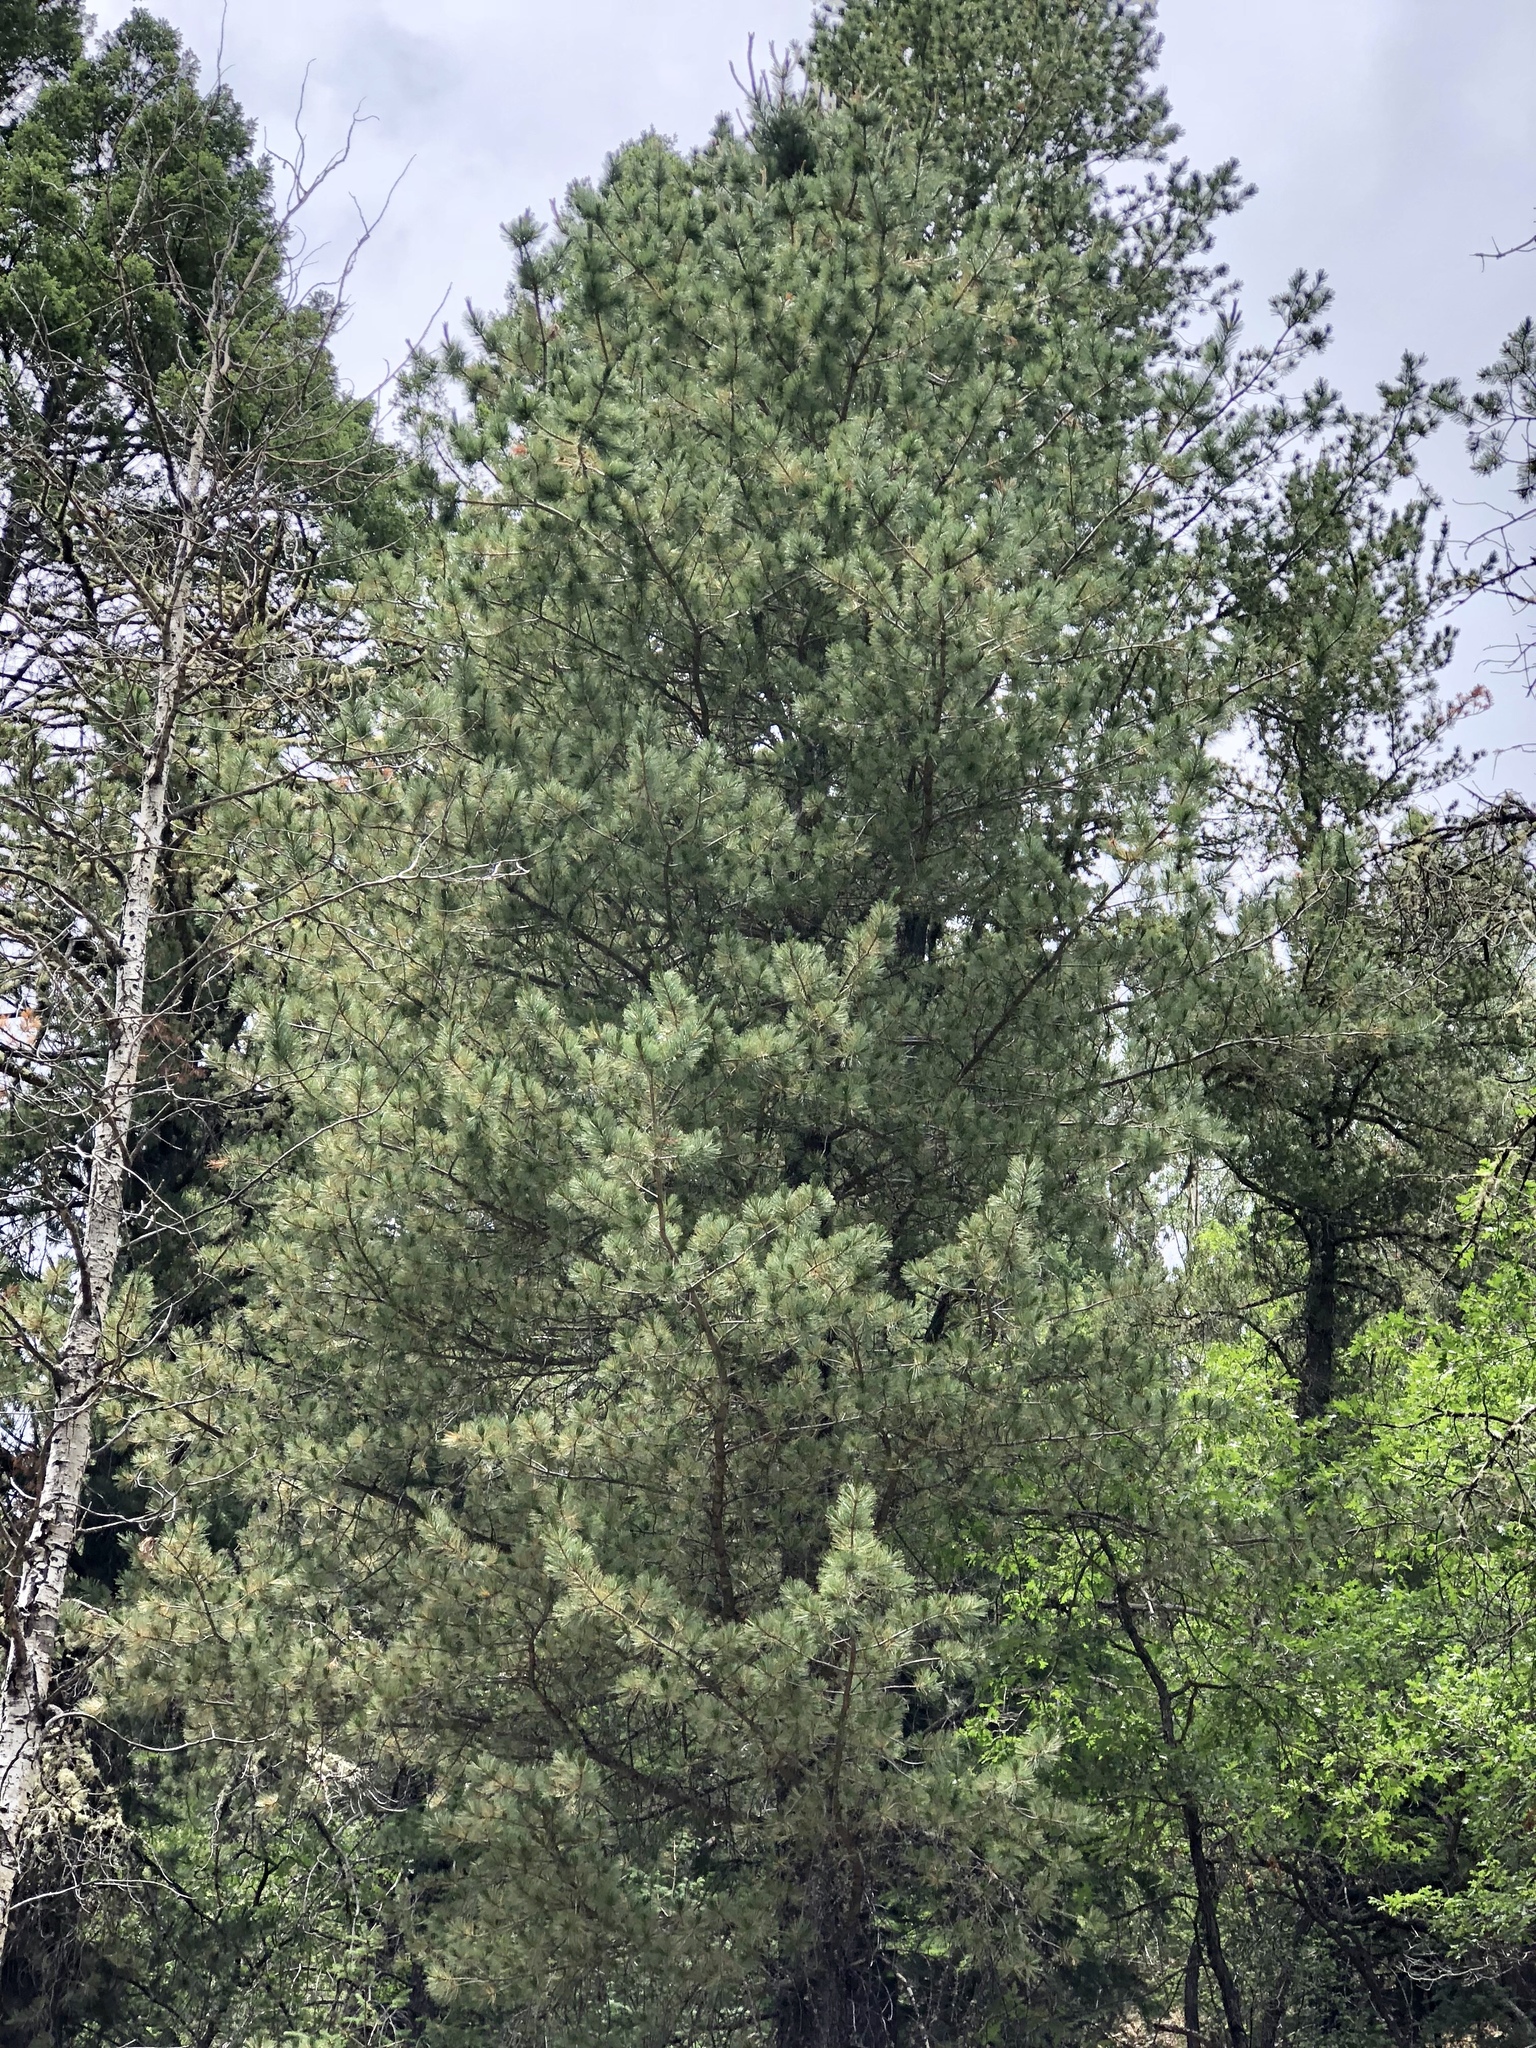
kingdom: Plantae
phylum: Tracheophyta
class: Pinopsida
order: Pinales
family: Pinaceae
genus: Pinus
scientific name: Pinus strobiformis
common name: Southwestern white pine
